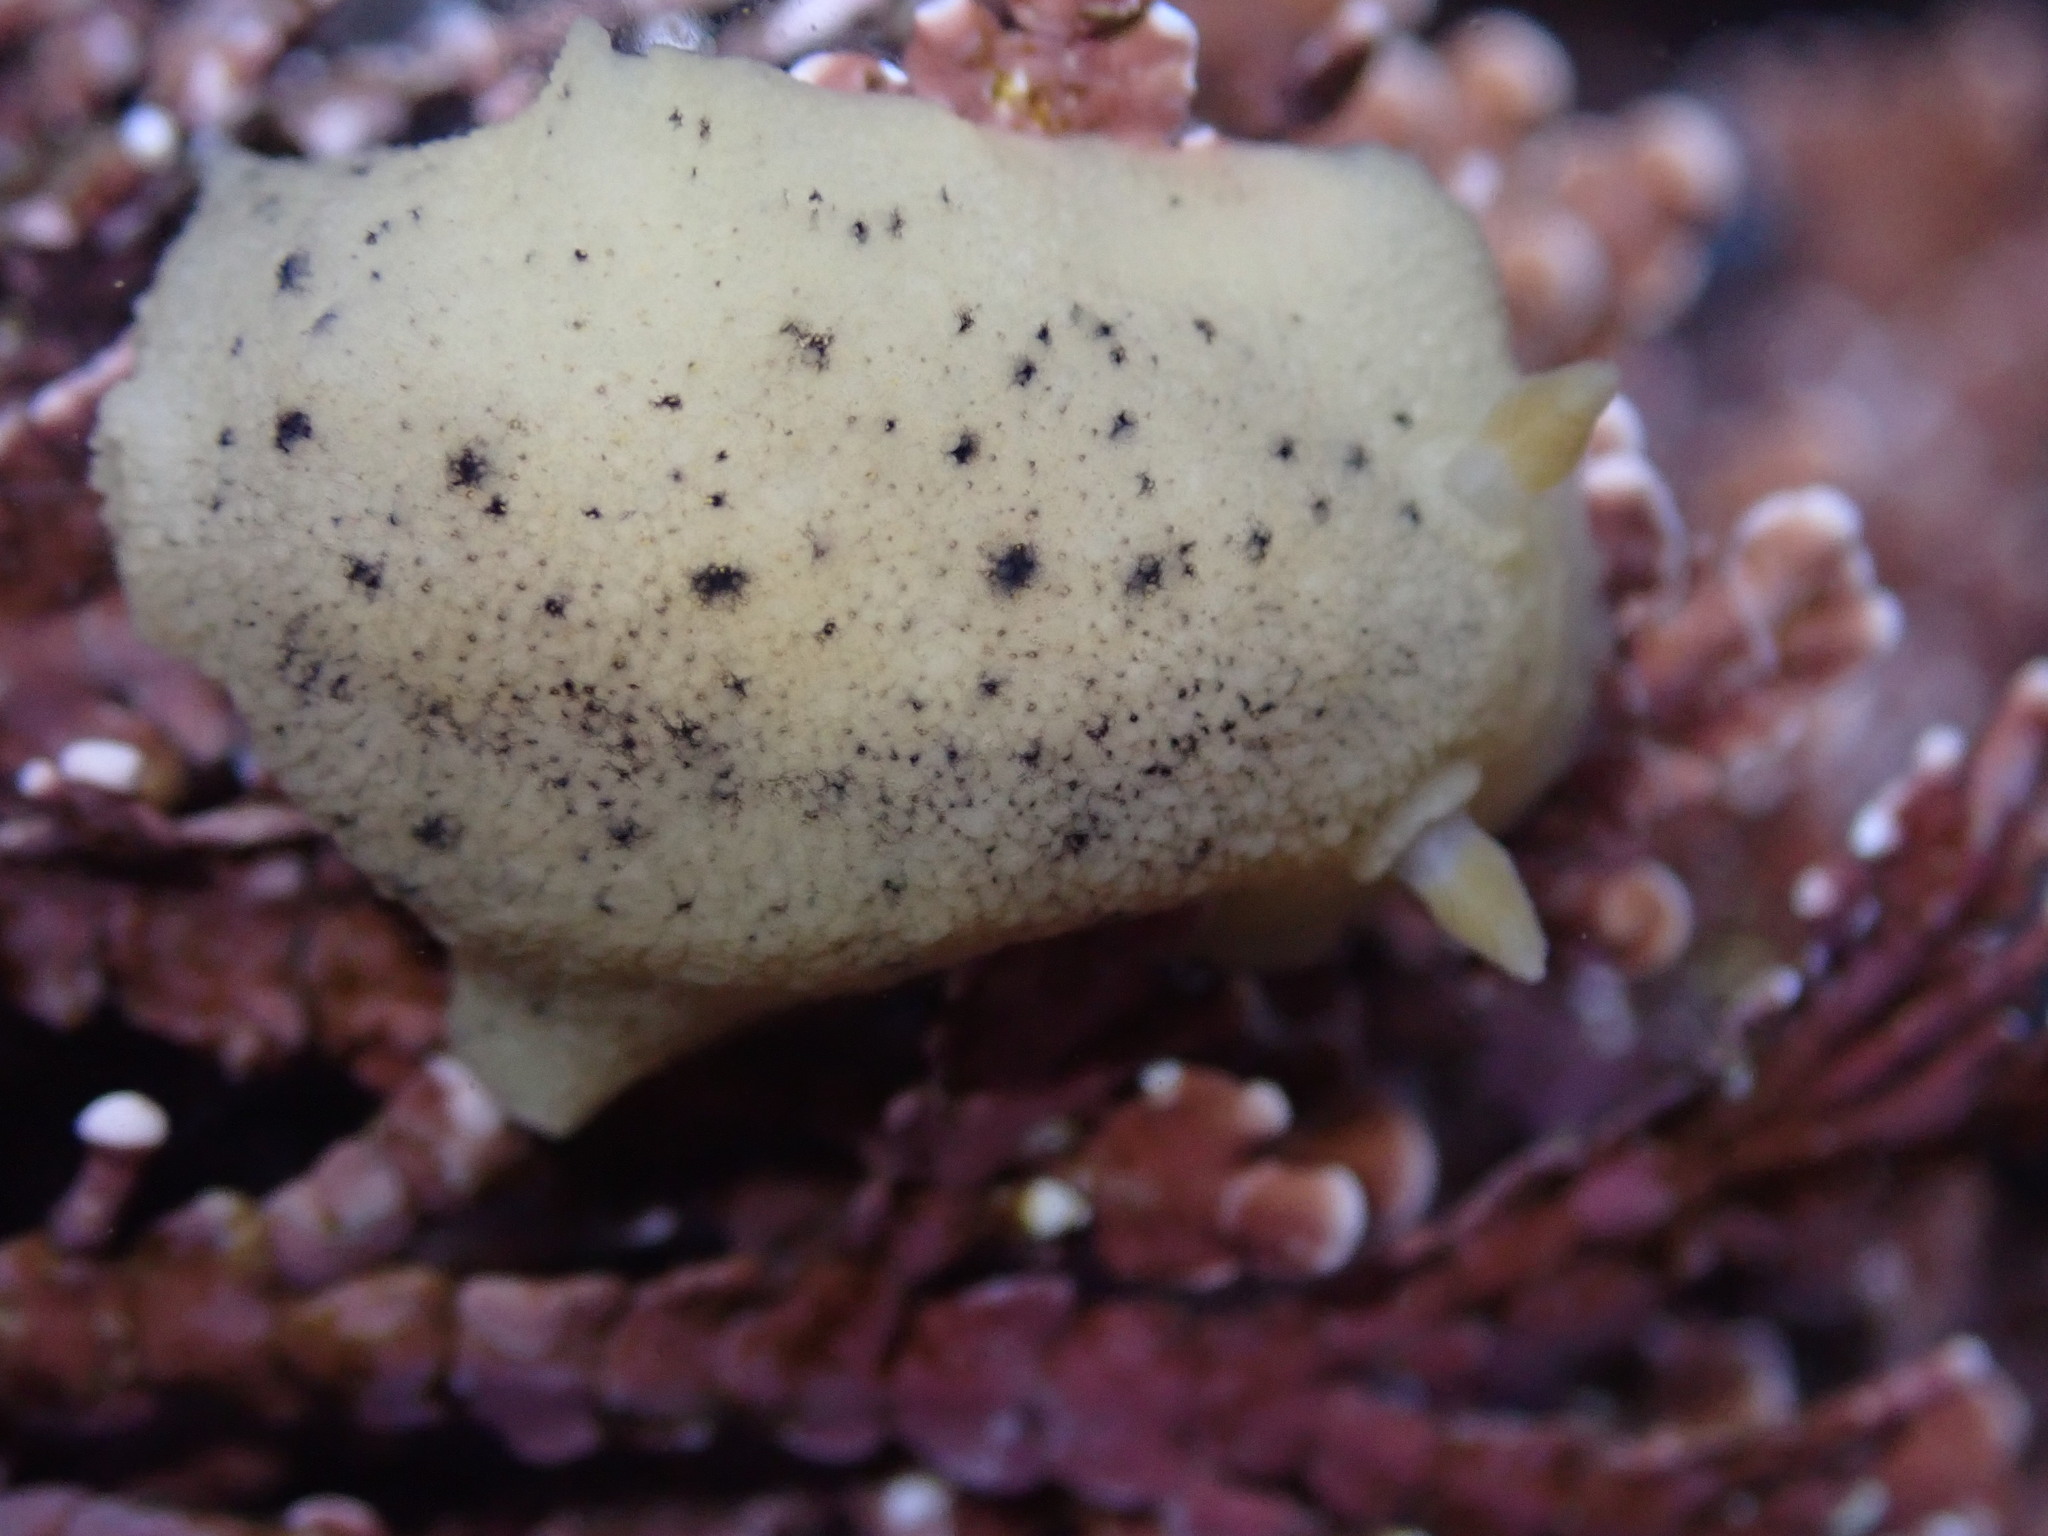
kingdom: Animalia
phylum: Mollusca
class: Gastropoda
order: Nudibranchia
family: Discodorididae
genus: Geitodoris
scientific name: Geitodoris heathi
